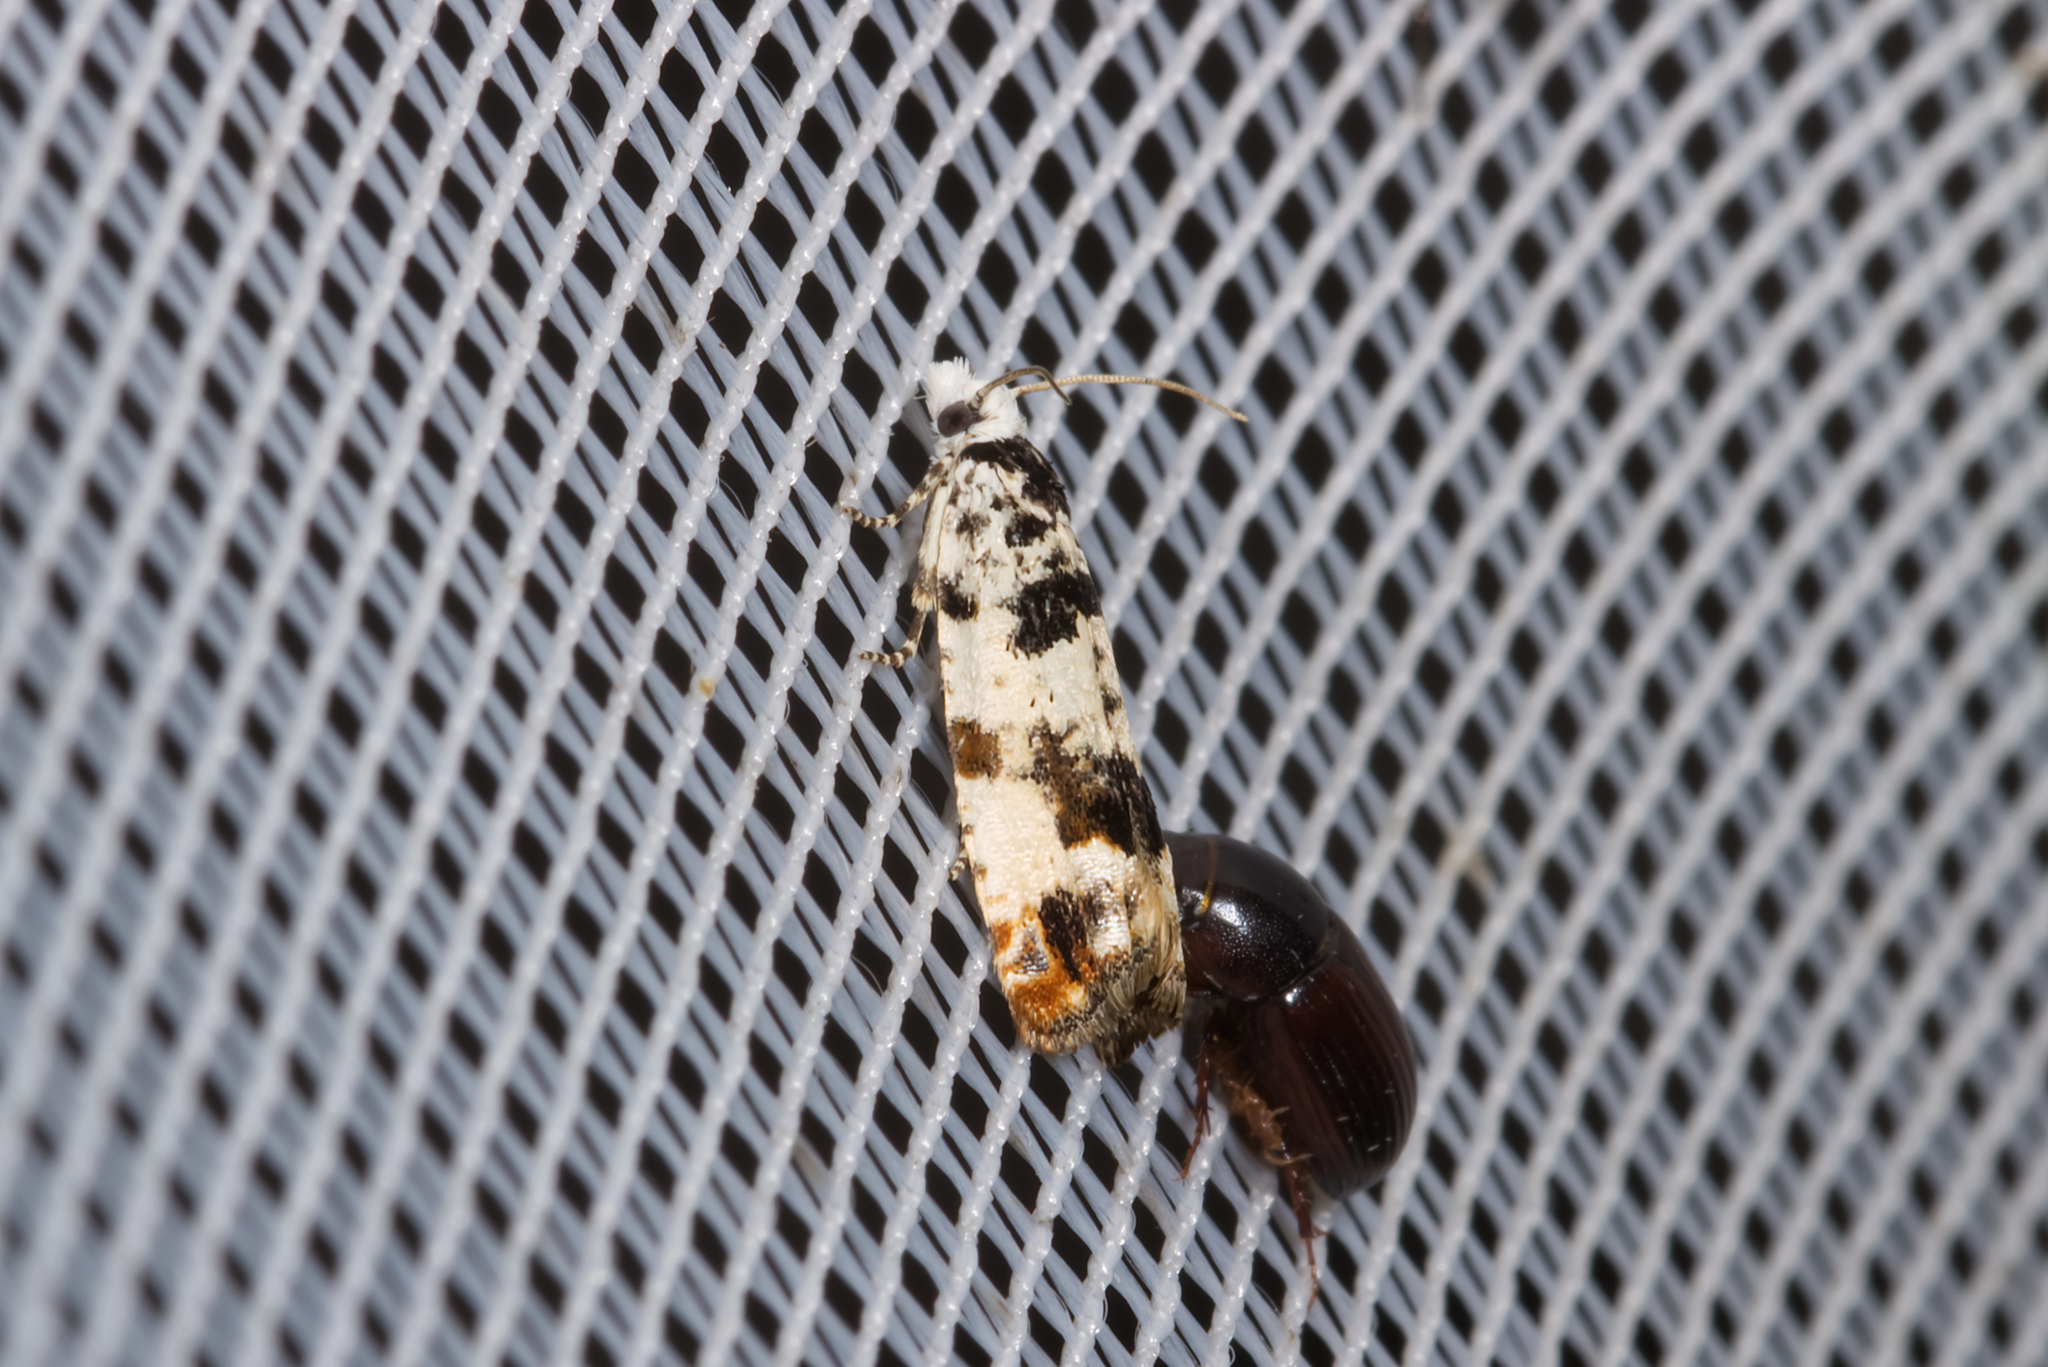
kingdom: Animalia
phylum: Arthropoda
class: Insecta
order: Lepidoptera
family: Tortricidae
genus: Eucosma
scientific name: Eucosma campoliliana
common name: Marbled bell
